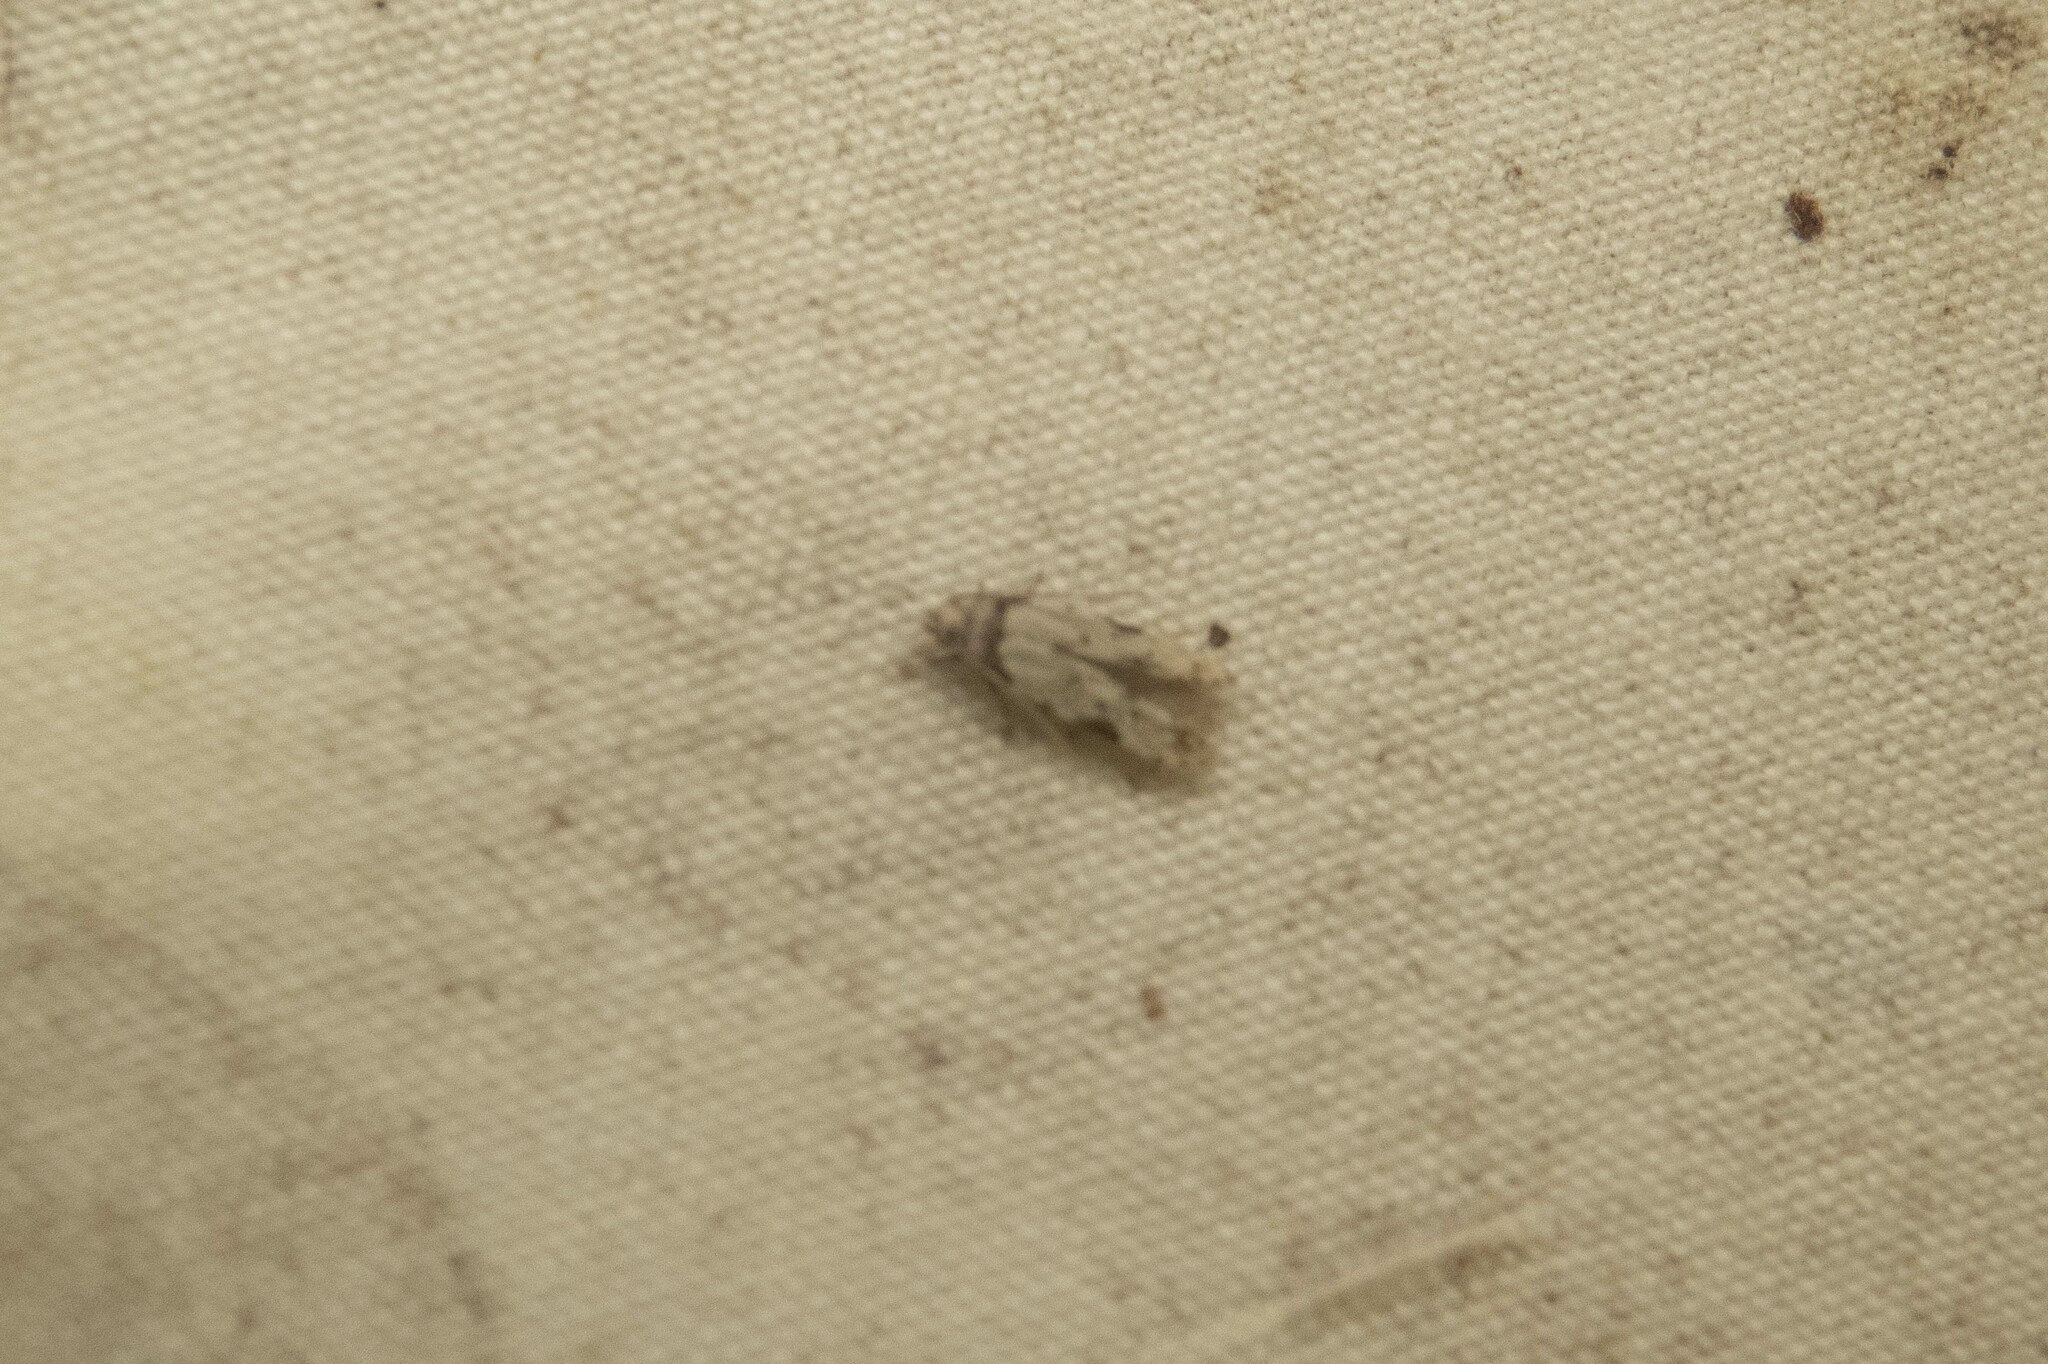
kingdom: Animalia
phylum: Arthropoda
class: Insecta
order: Lepidoptera
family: Autostichidae
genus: Taygete
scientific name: Taygete attributella
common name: Triangle-marked twirler moth
